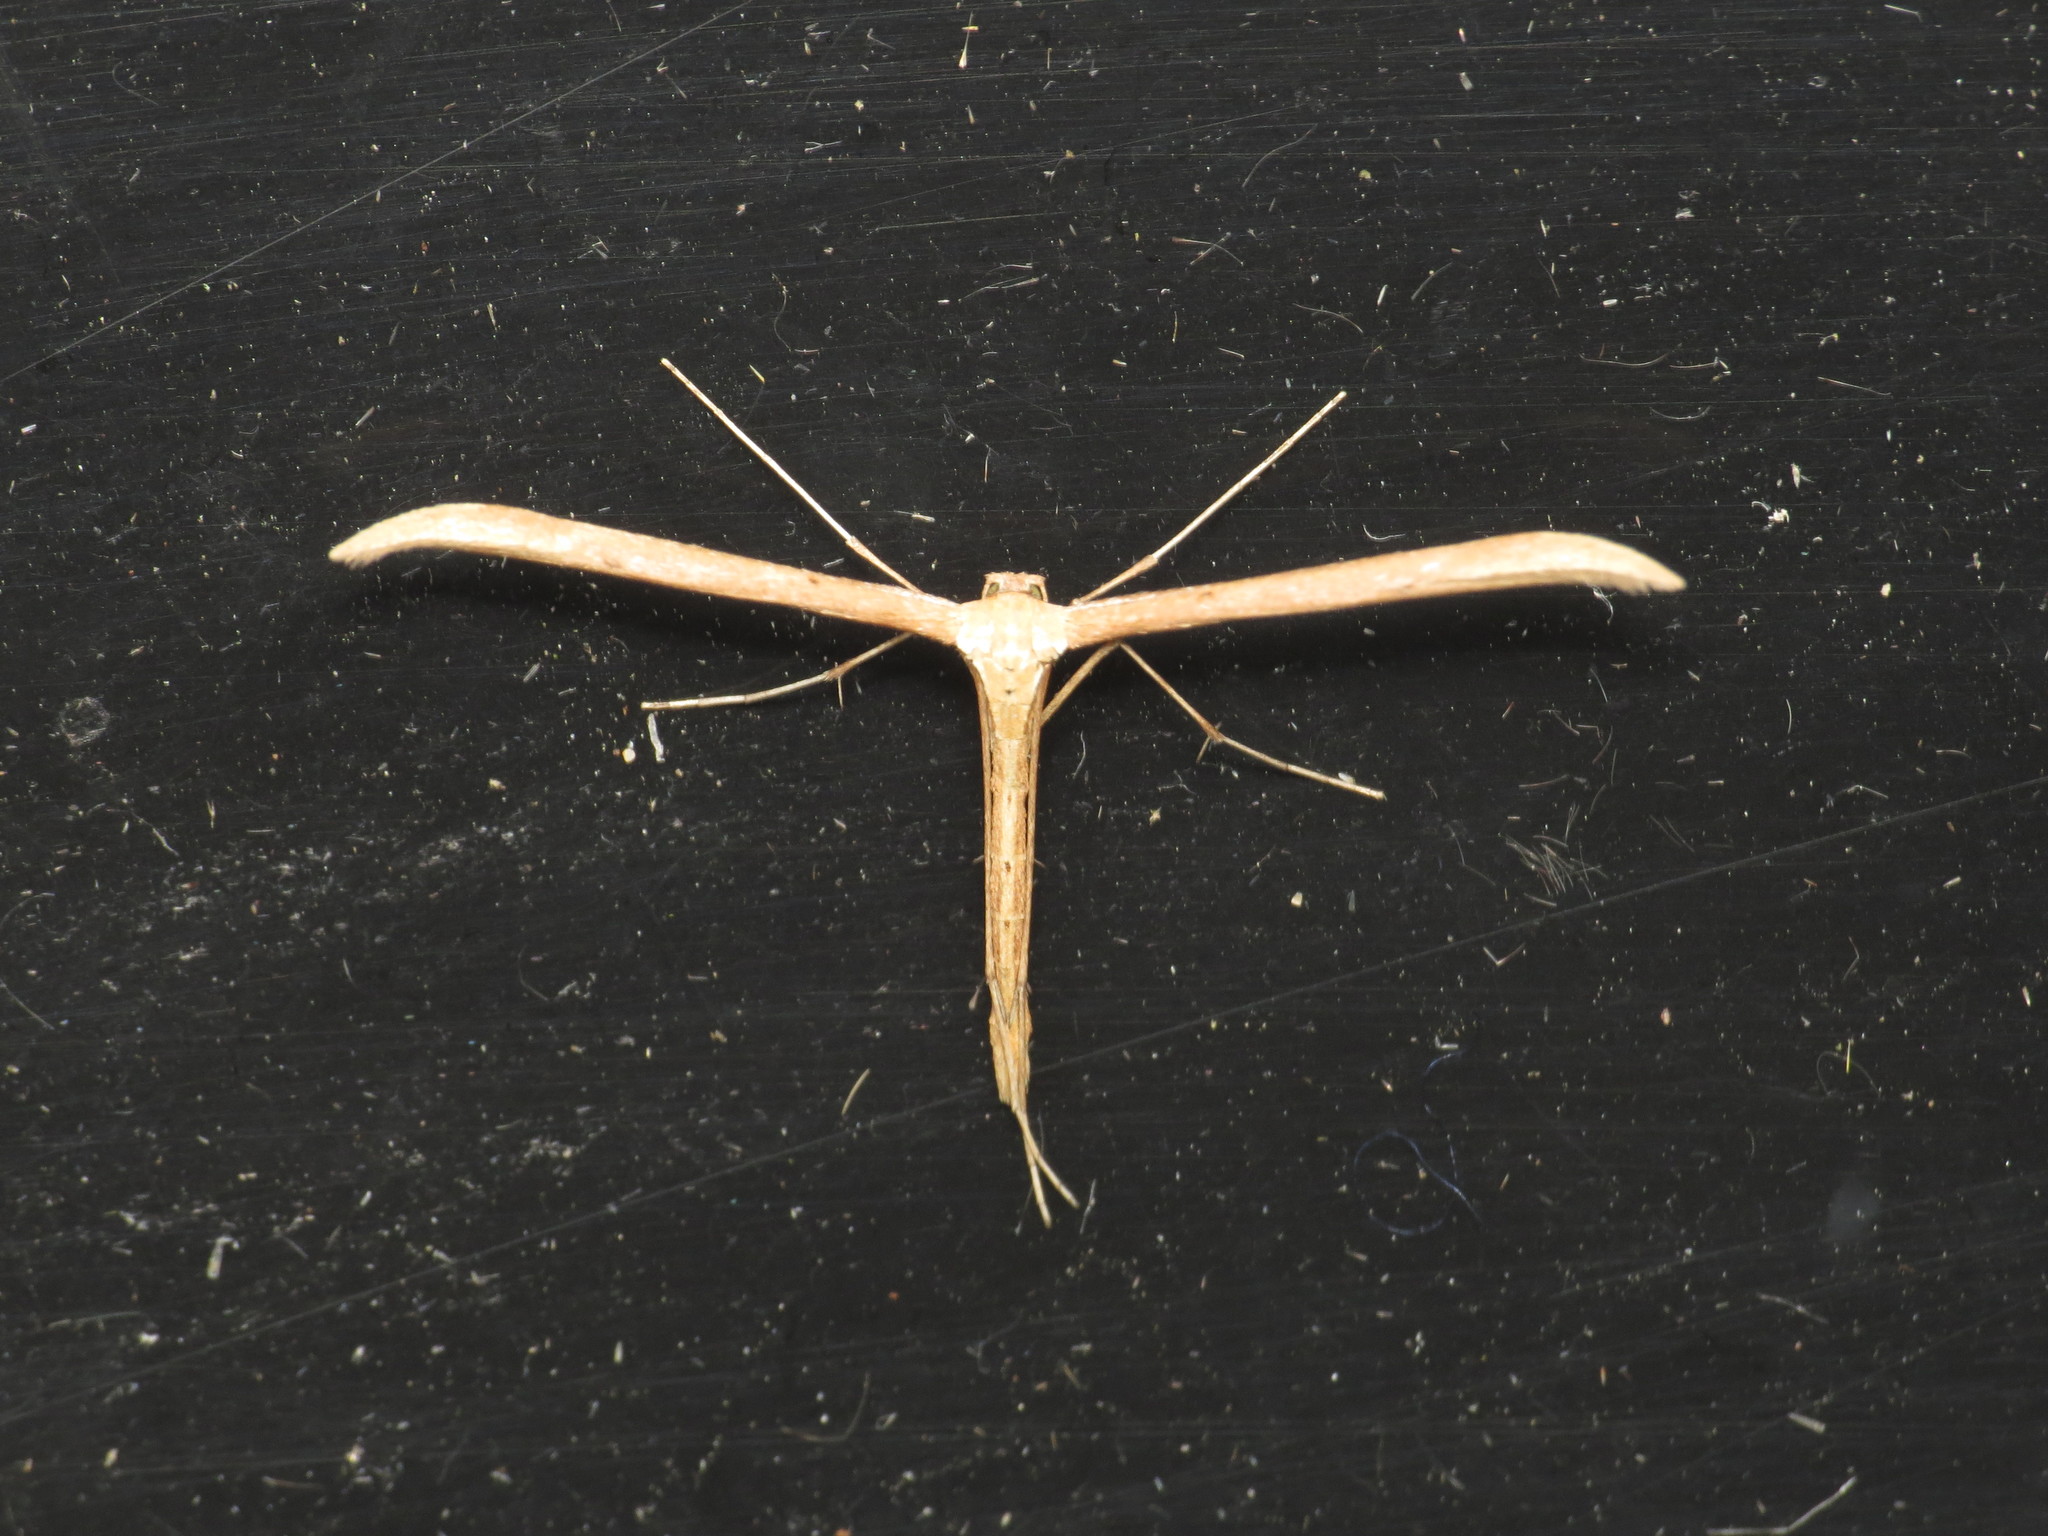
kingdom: Animalia
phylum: Arthropoda
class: Insecta
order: Lepidoptera
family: Pterophoridae
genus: Emmelina
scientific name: Emmelina monodactyla
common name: Common plume
